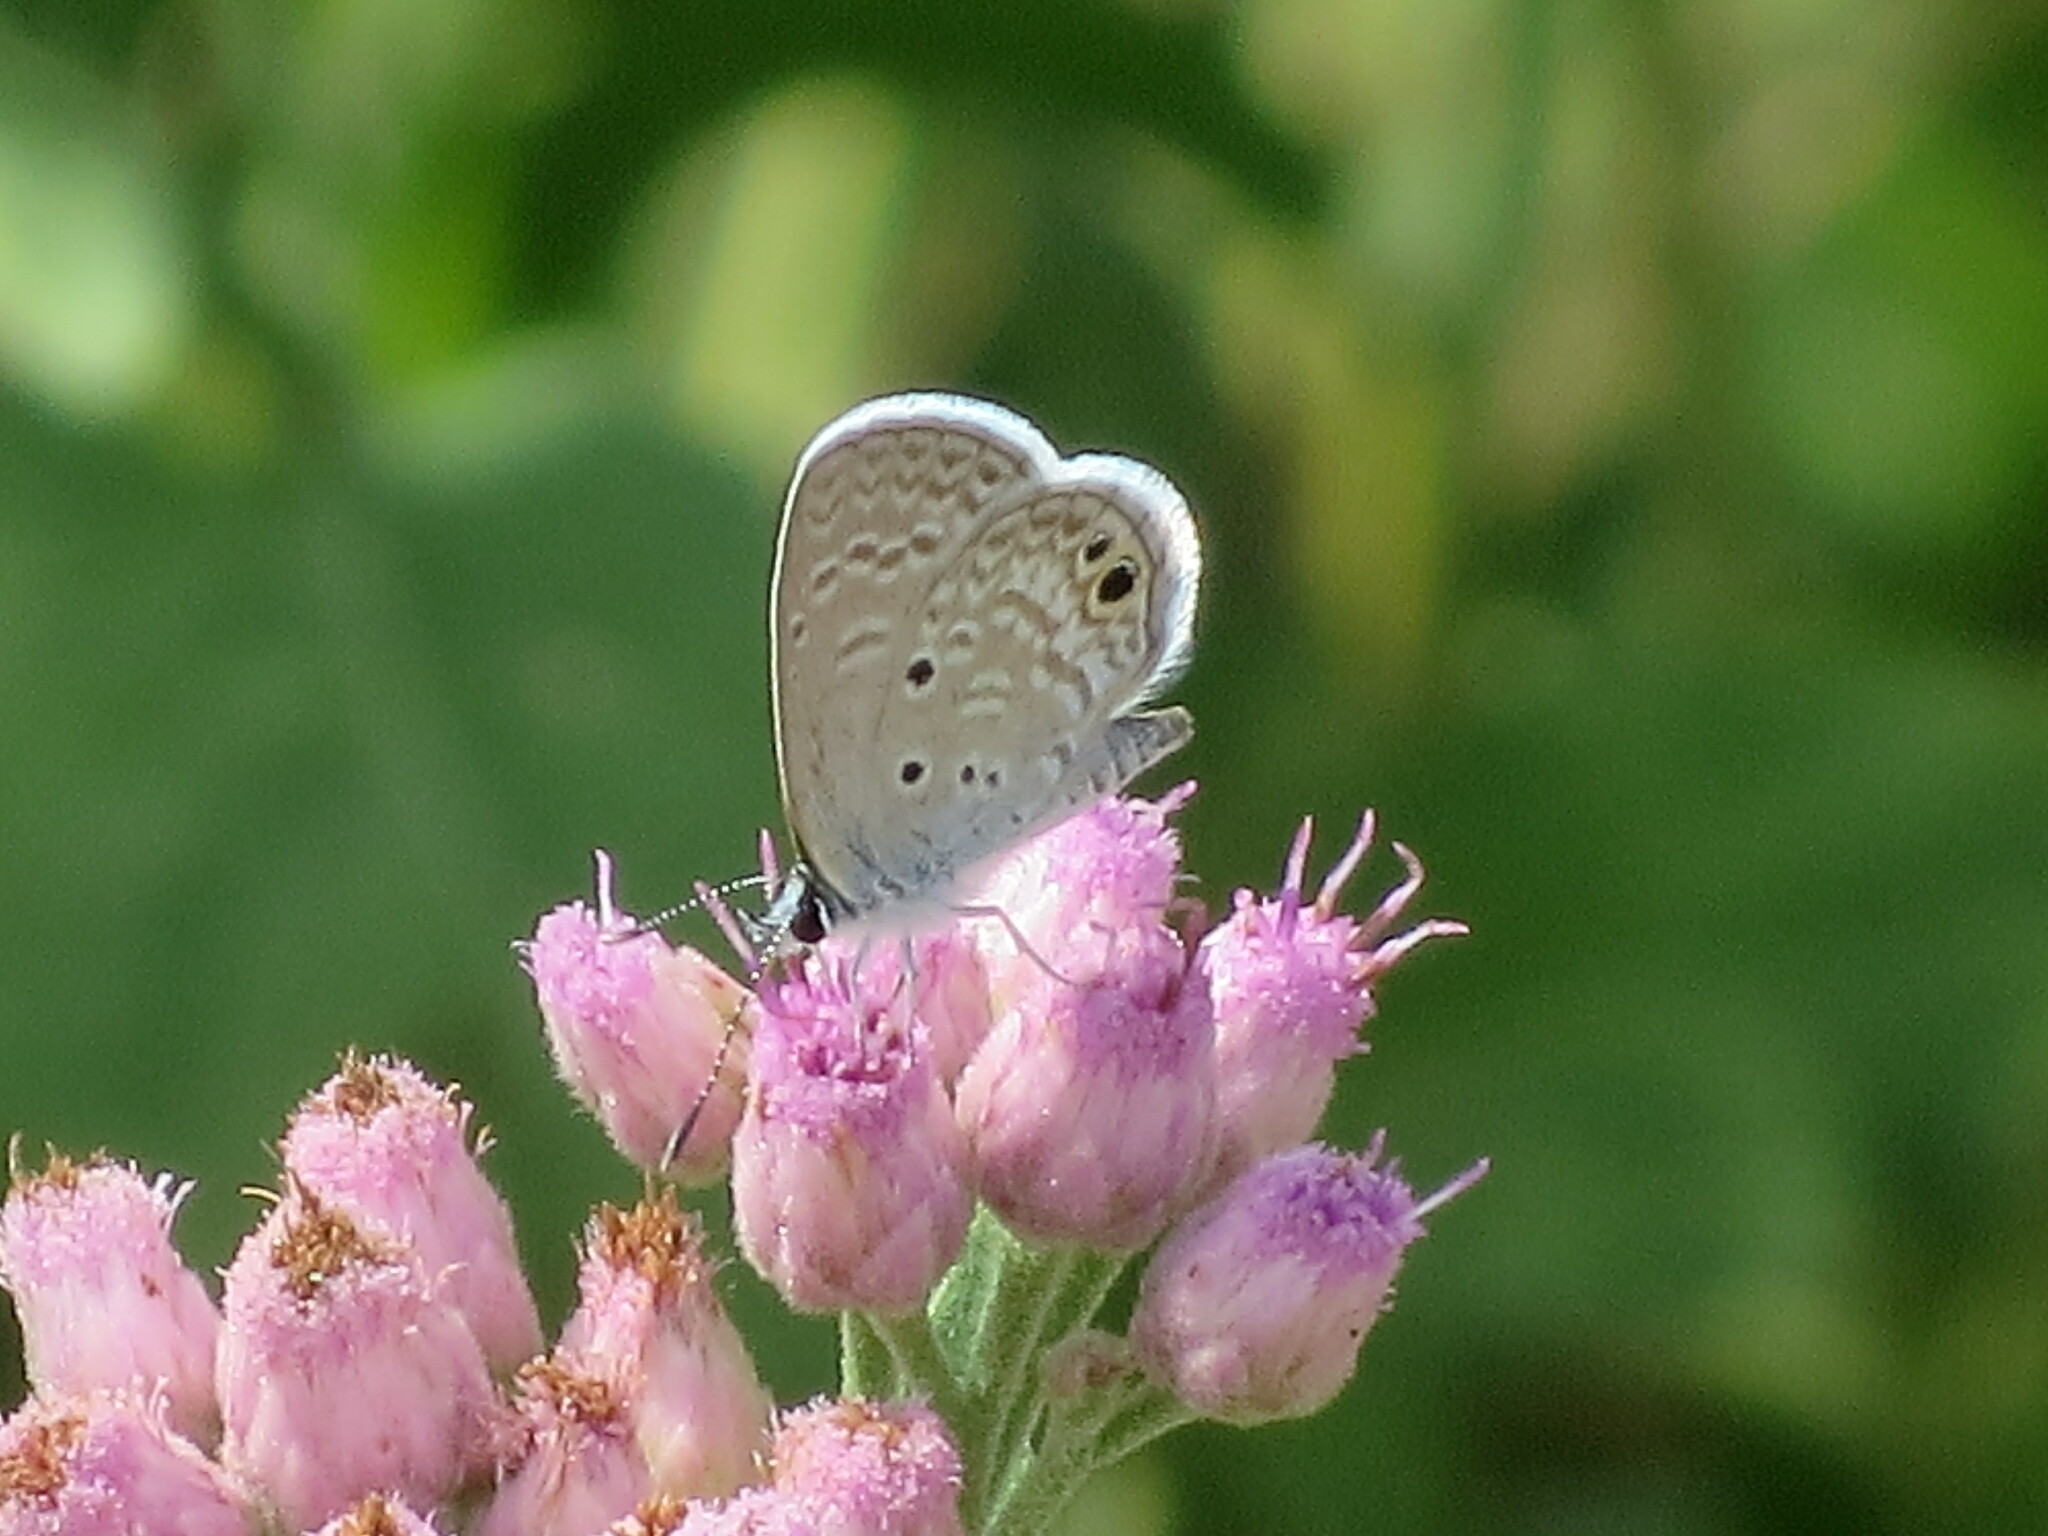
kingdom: Animalia
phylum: Arthropoda
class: Insecta
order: Lepidoptera
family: Lycaenidae
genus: Hemiargus
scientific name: Hemiargus ceraunus
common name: Ceraunus blue
